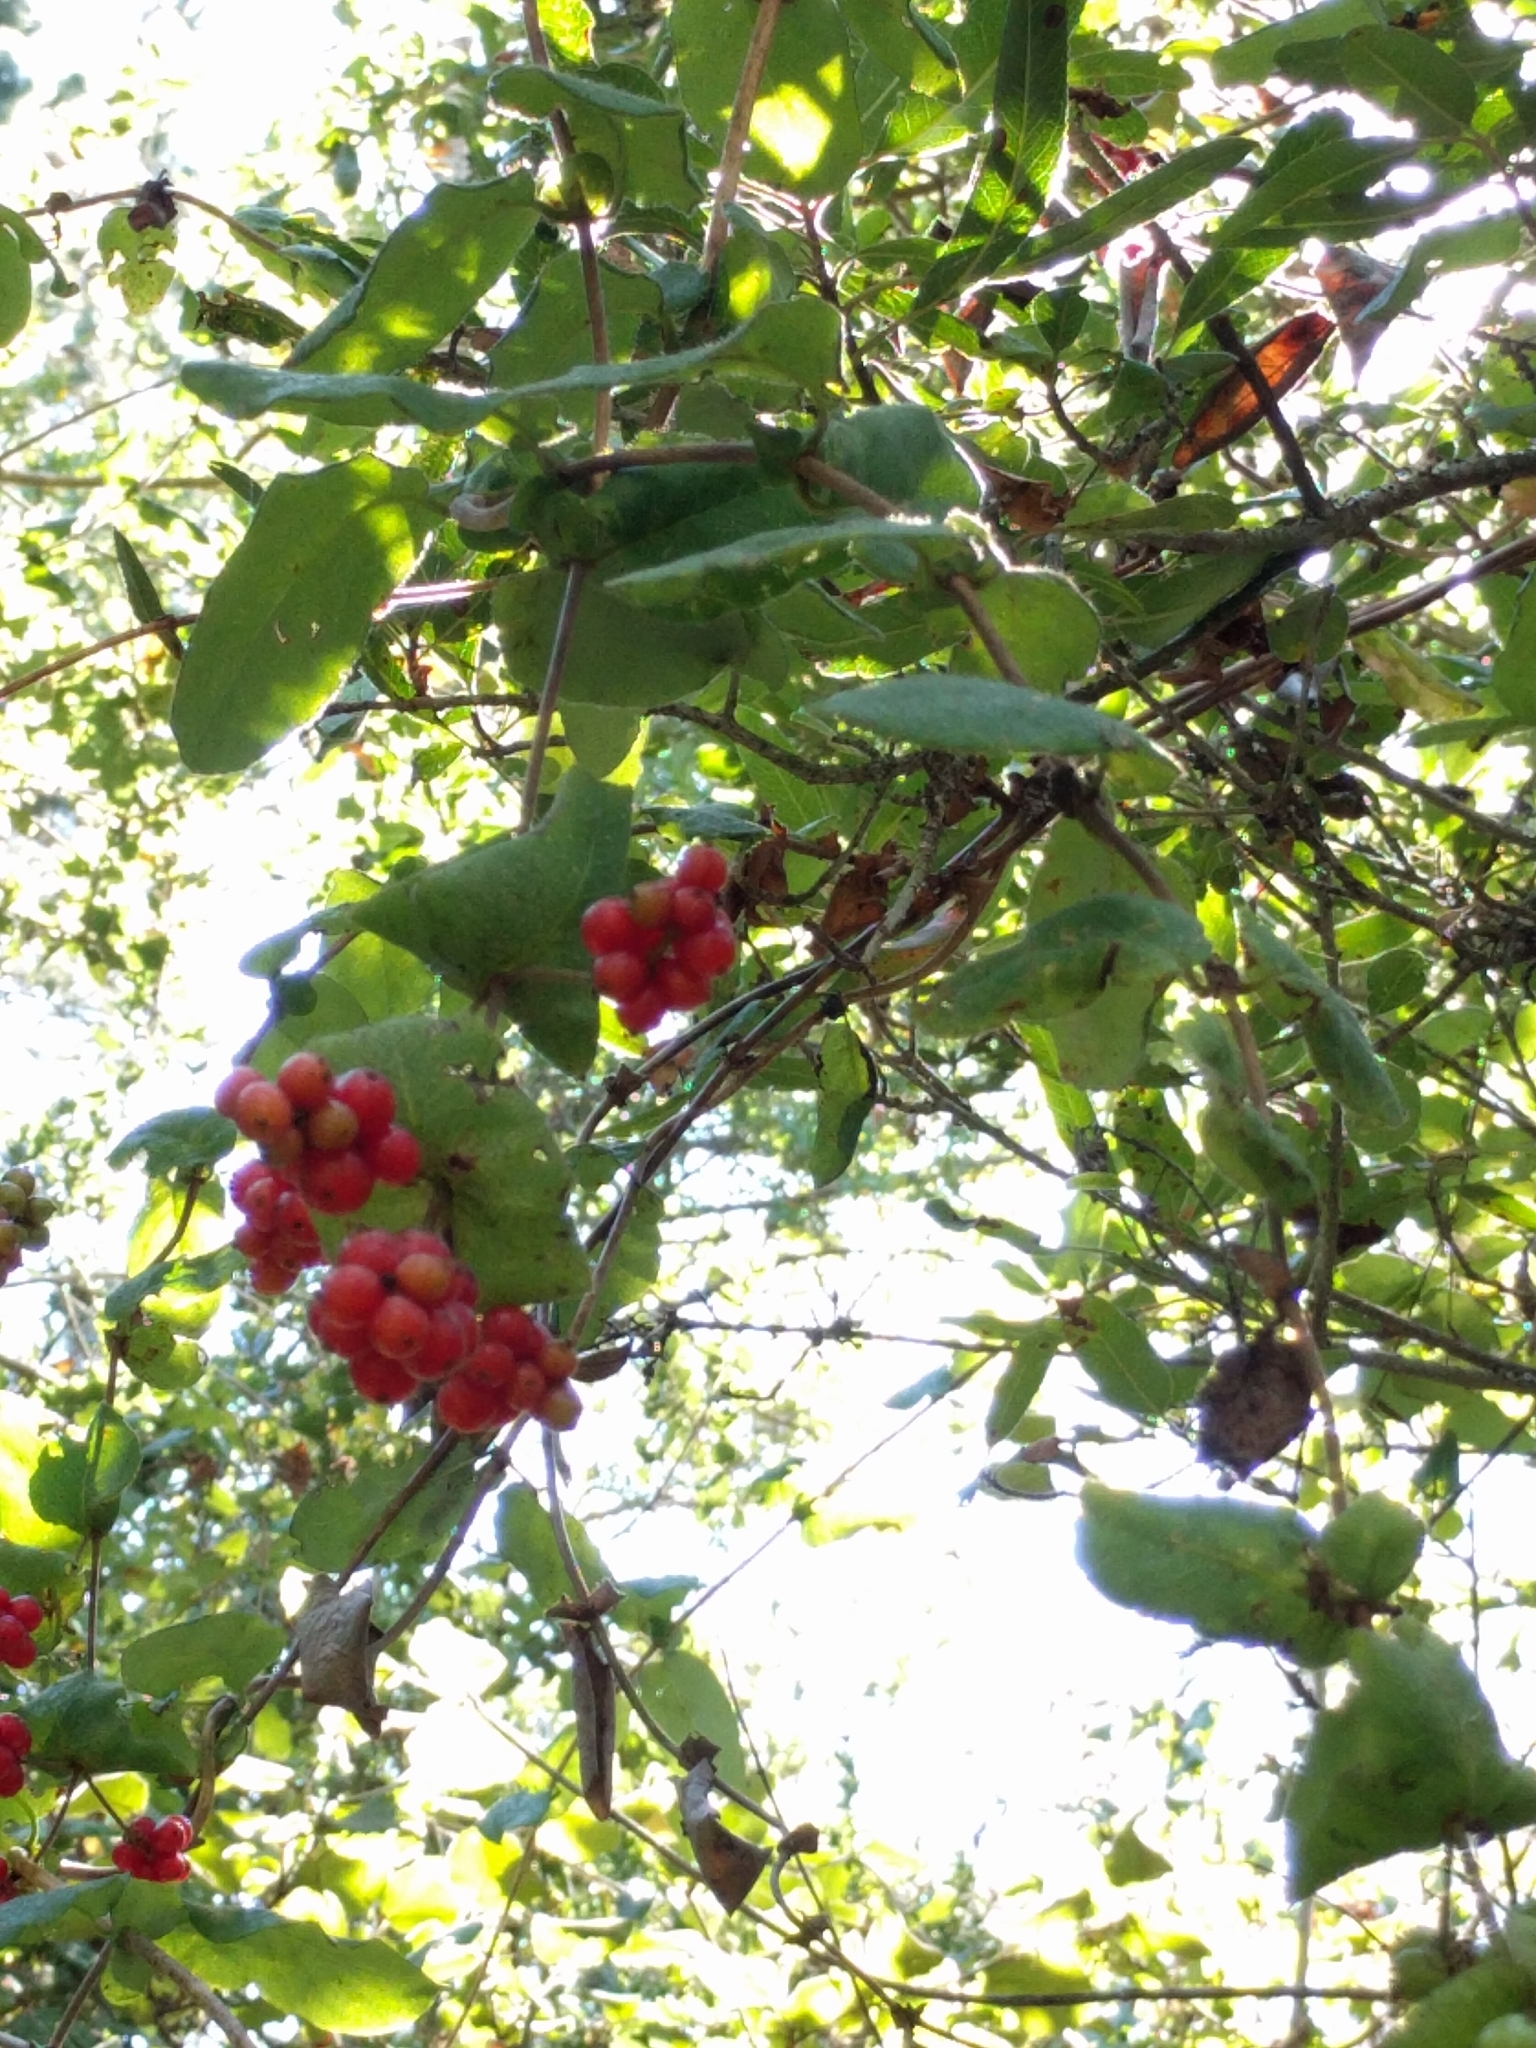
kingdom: Plantae
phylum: Tracheophyta
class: Magnoliopsida
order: Dipsacales
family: Caprifoliaceae
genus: Lonicera
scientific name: Lonicera hispidula
